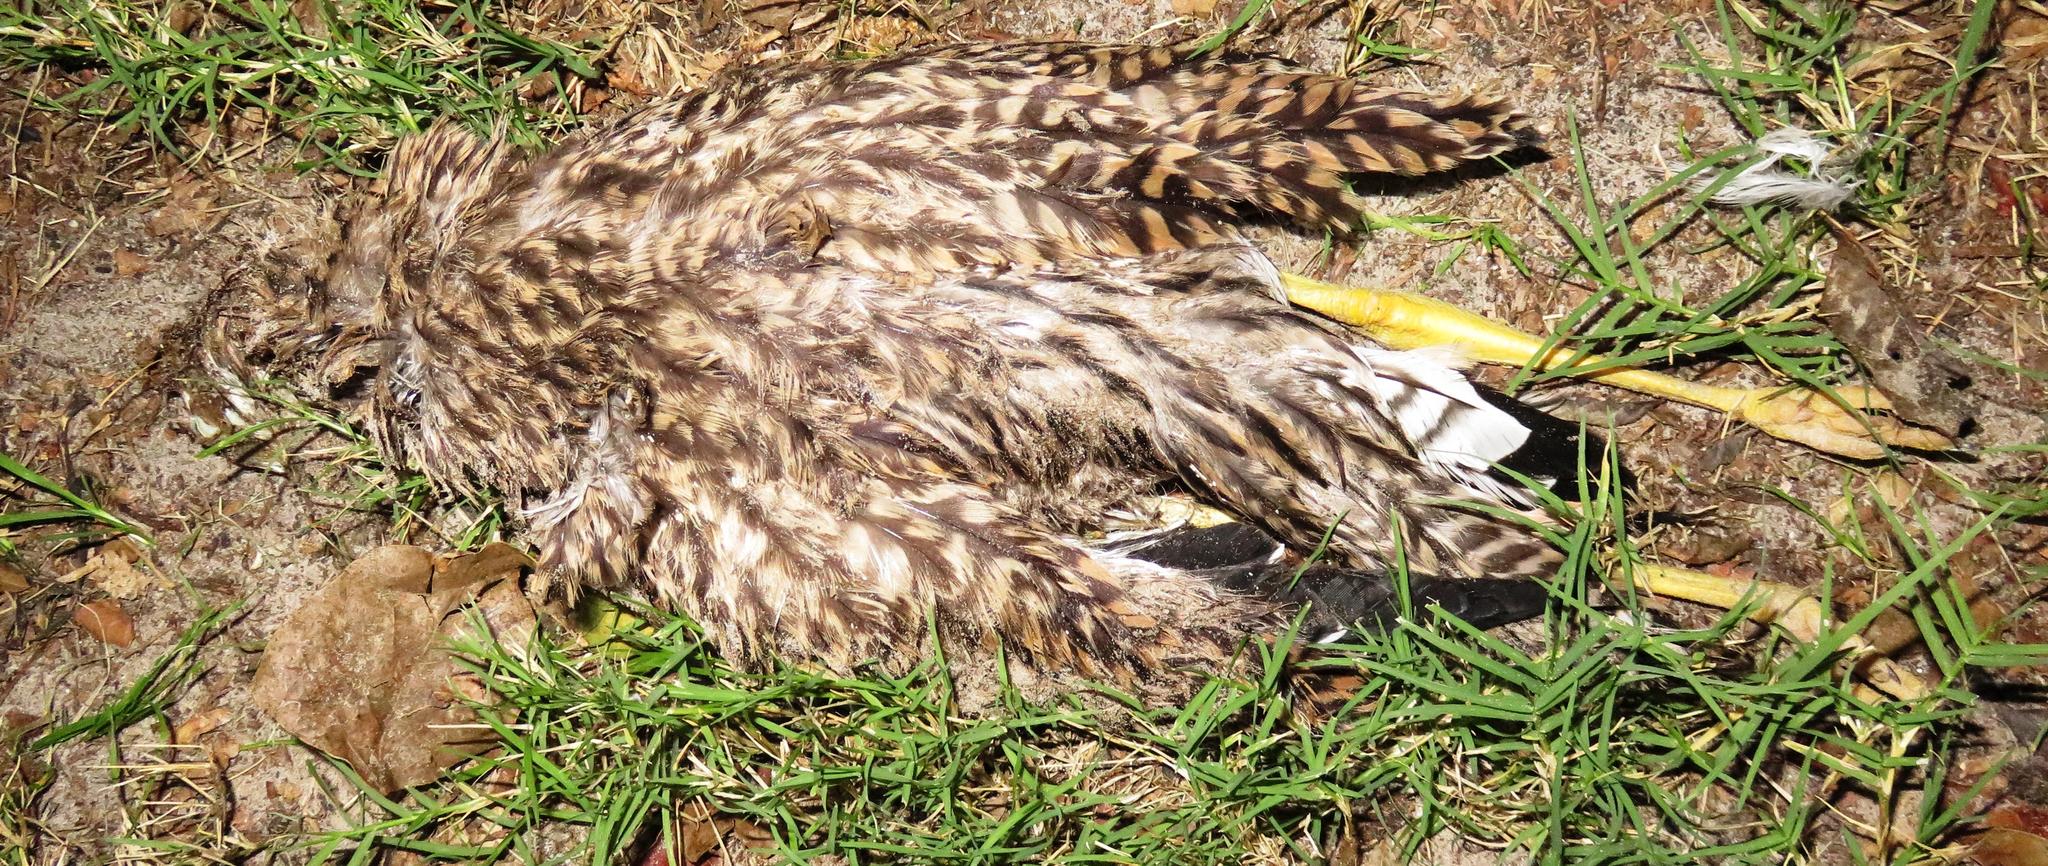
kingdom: Animalia
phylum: Chordata
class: Aves
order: Charadriiformes
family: Burhinidae
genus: Burhinus
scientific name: Burhinus capensis
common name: Spotted thick-knee
